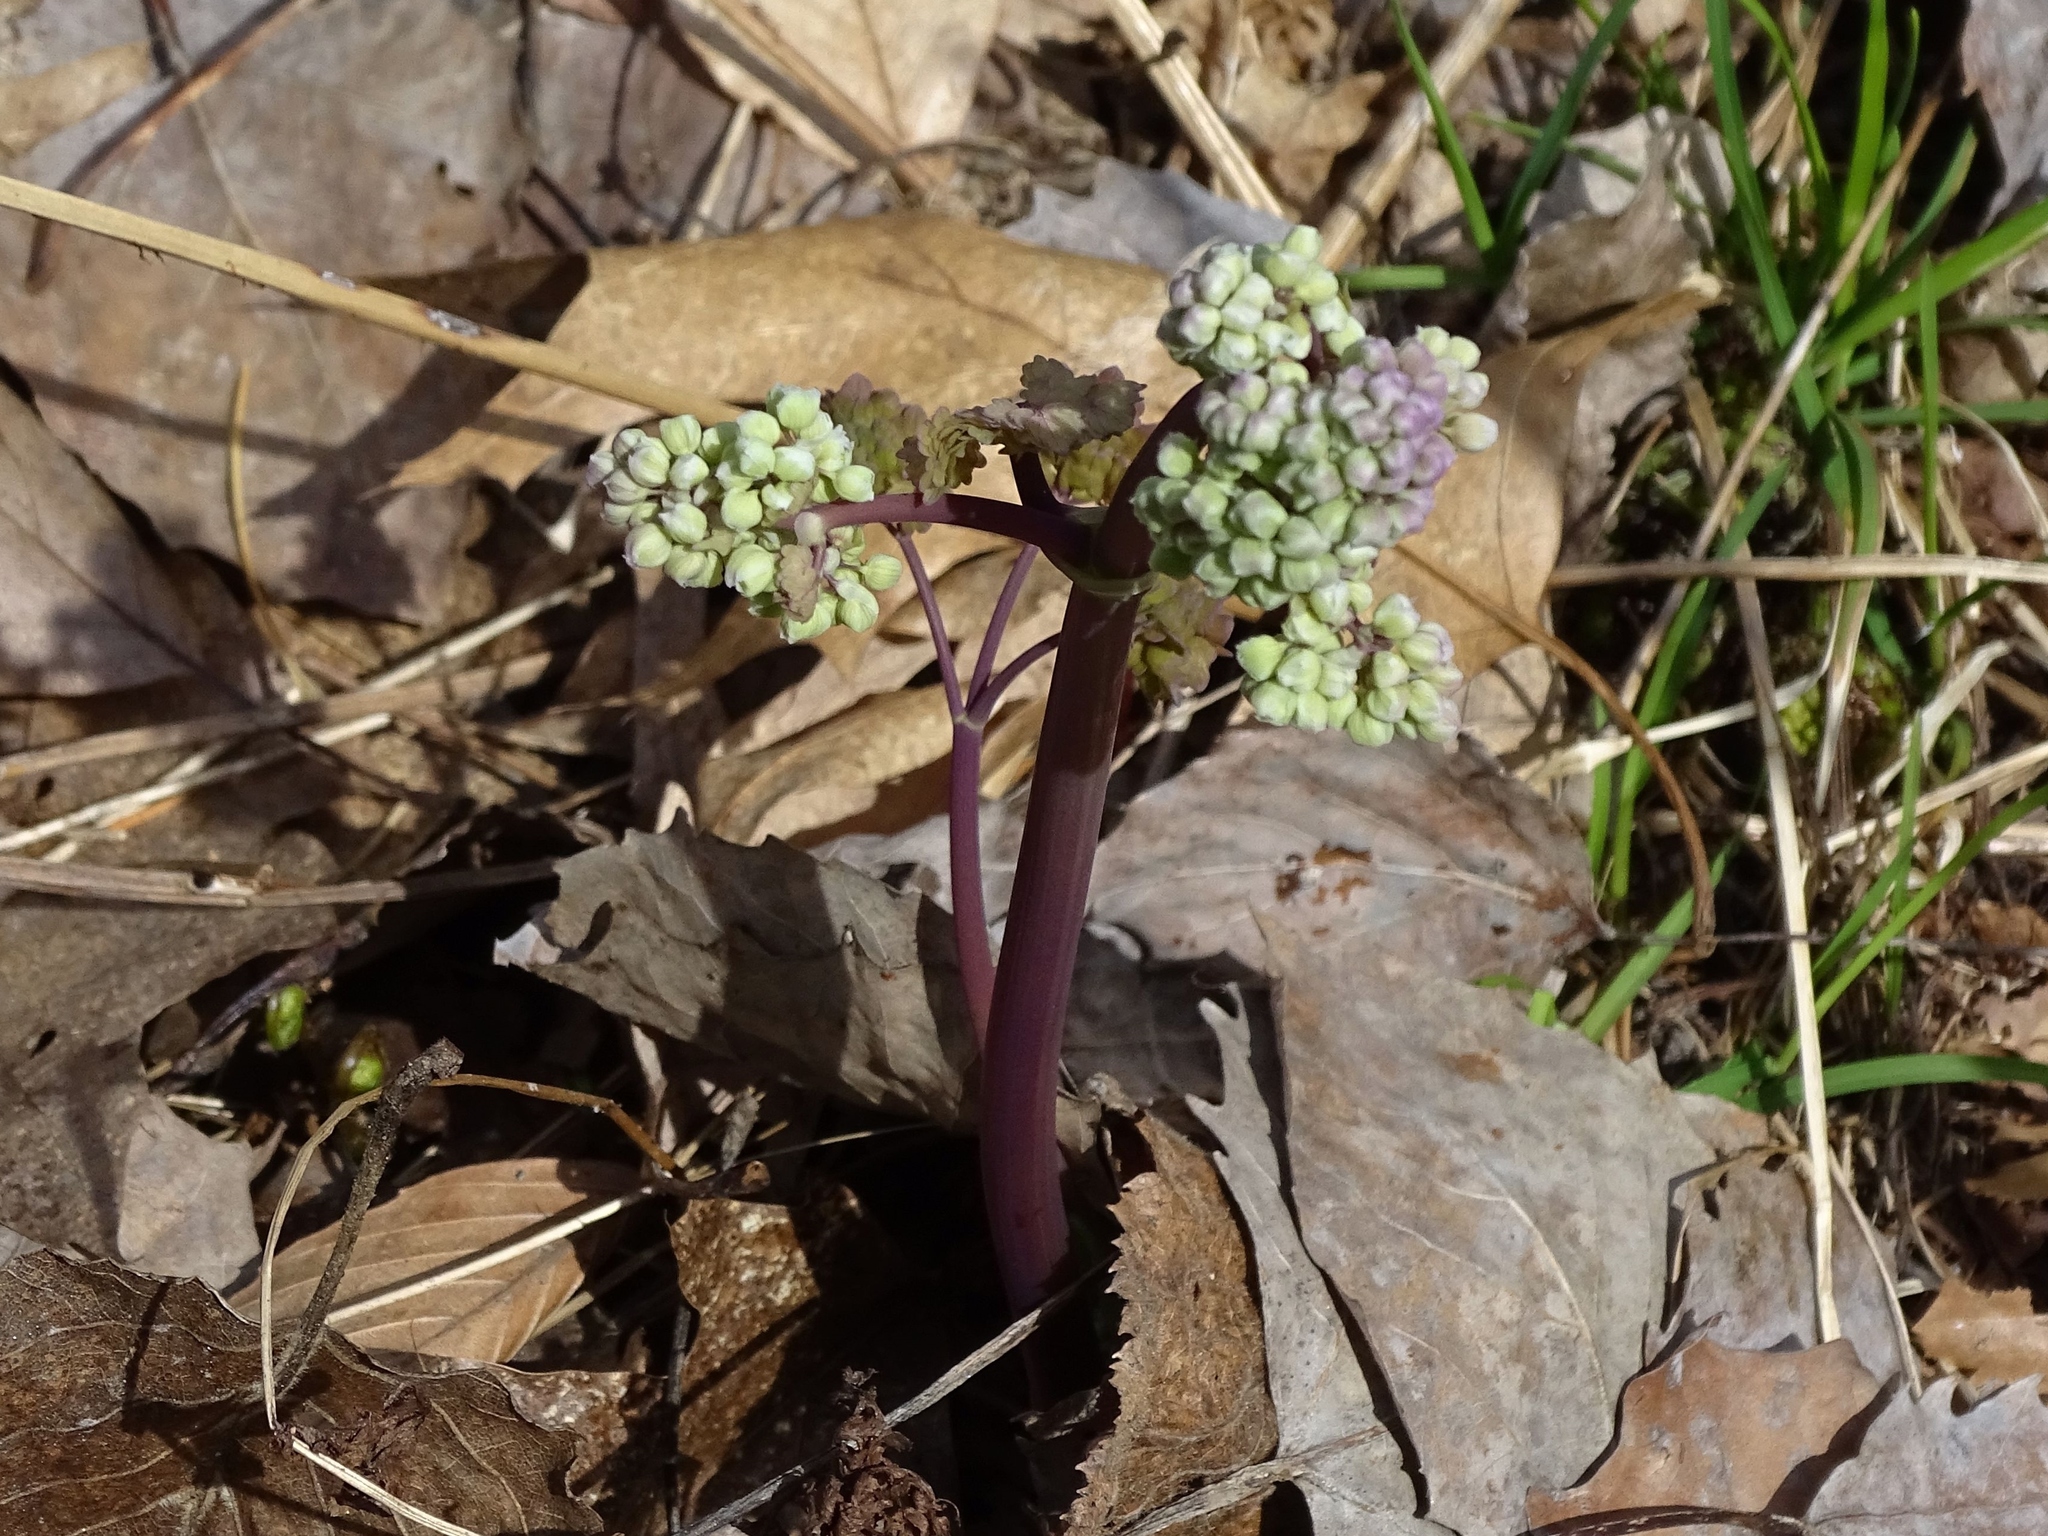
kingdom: Plantae
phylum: Tracheophyta
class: Magnoliopsida
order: Ranunculales
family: Ranunculaceae
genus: Thalictrum
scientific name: Thalictrum dioicum
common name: Early meadow-rue
